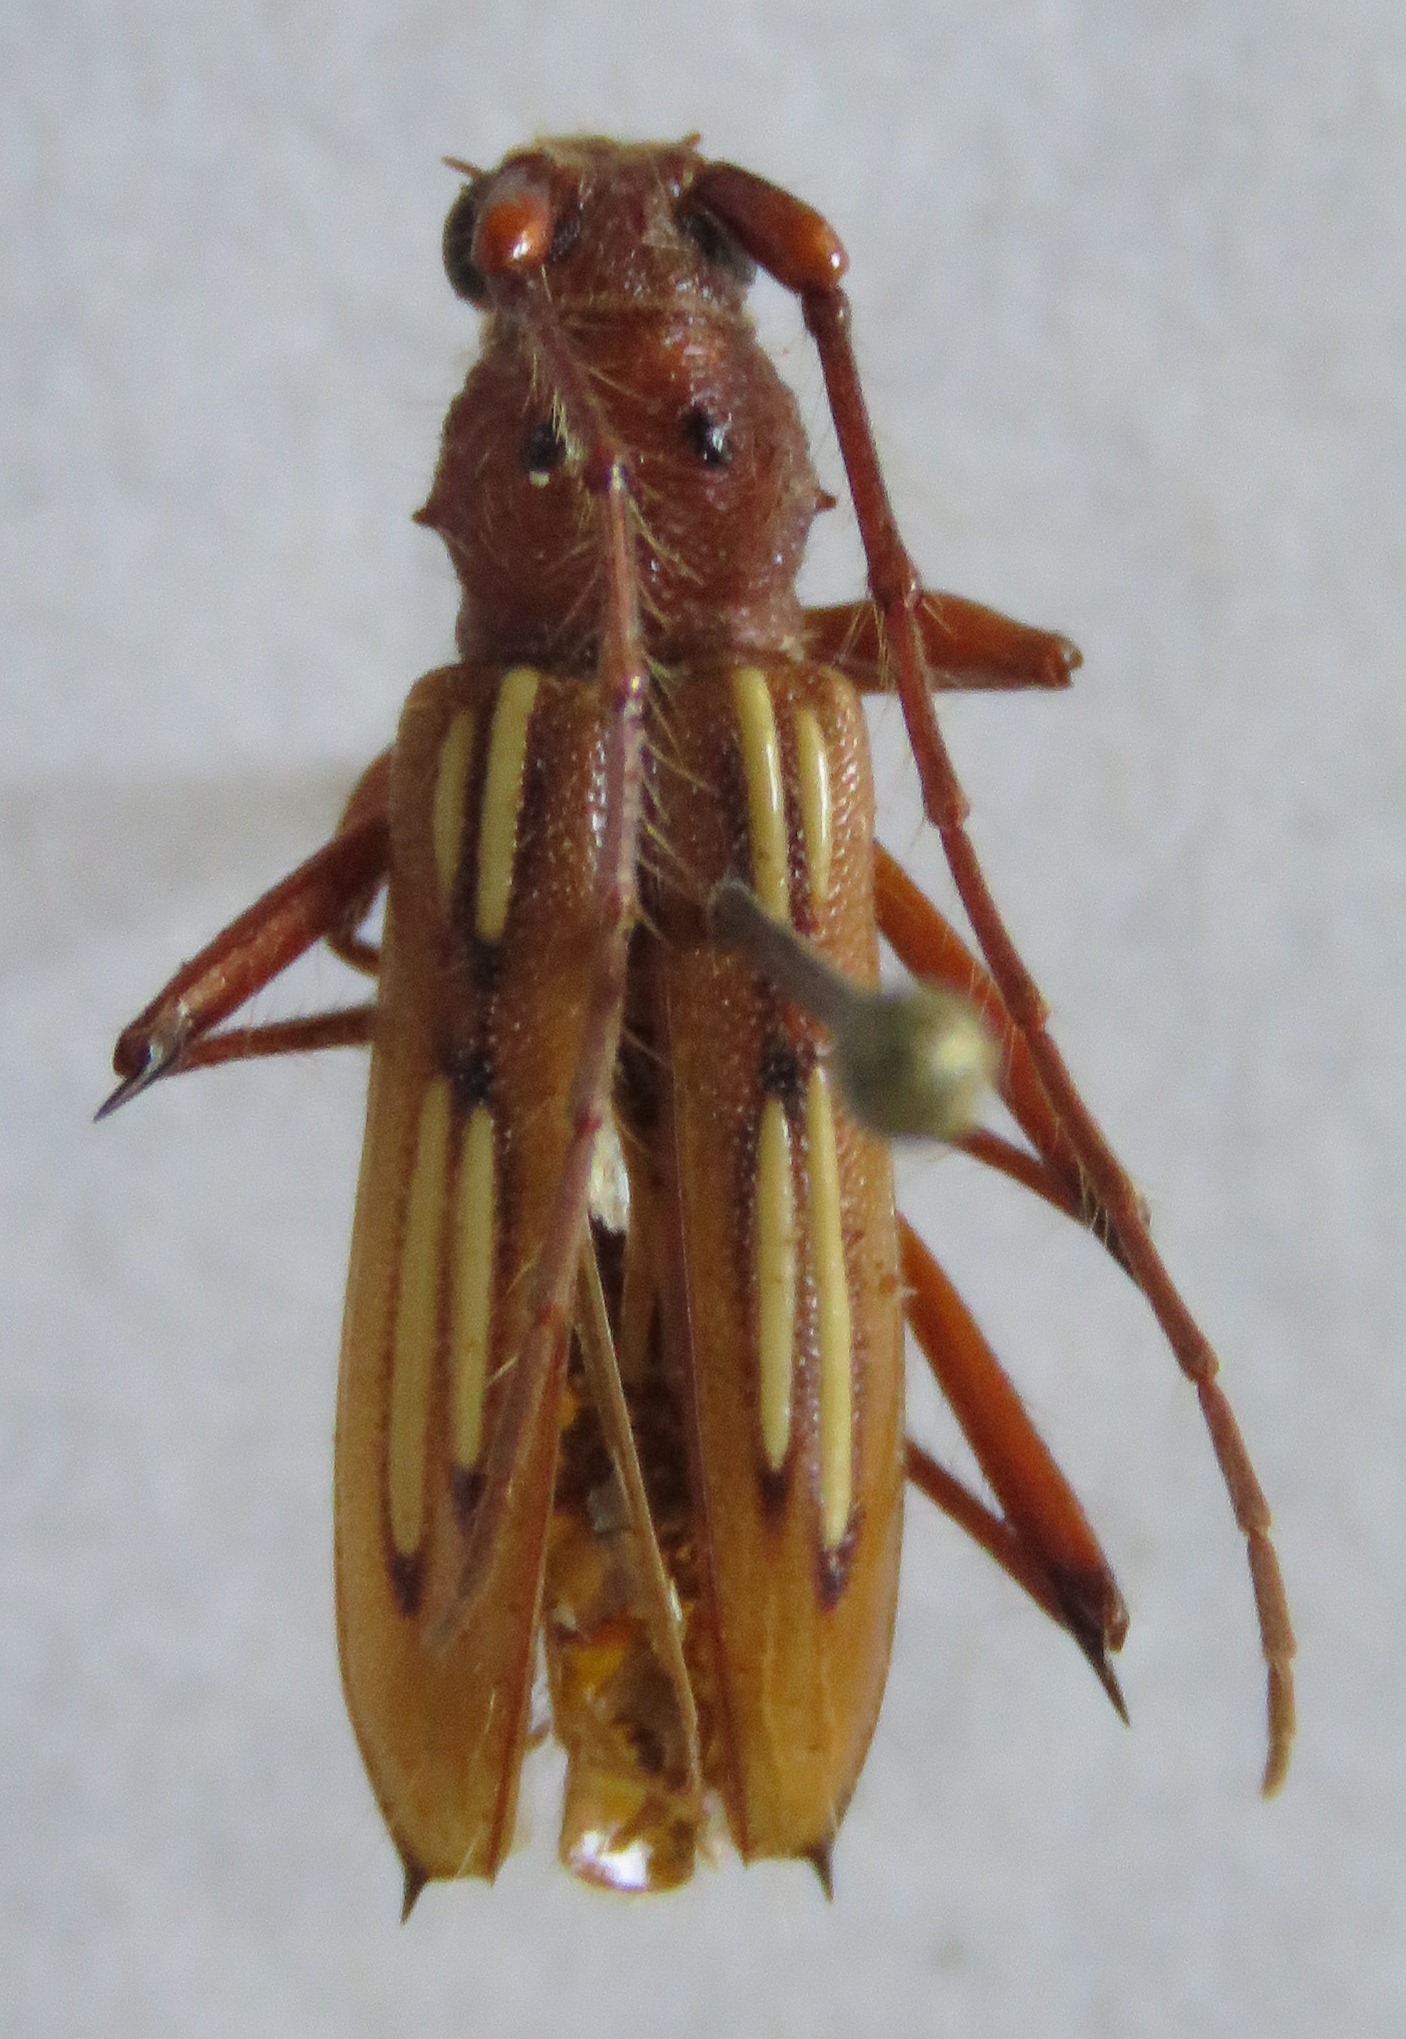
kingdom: Animalia
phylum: Arthropoda
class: Insecta
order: Coleoptera
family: Cerambycidae
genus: Eburodacrys
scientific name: Eburodacrys havanensis
